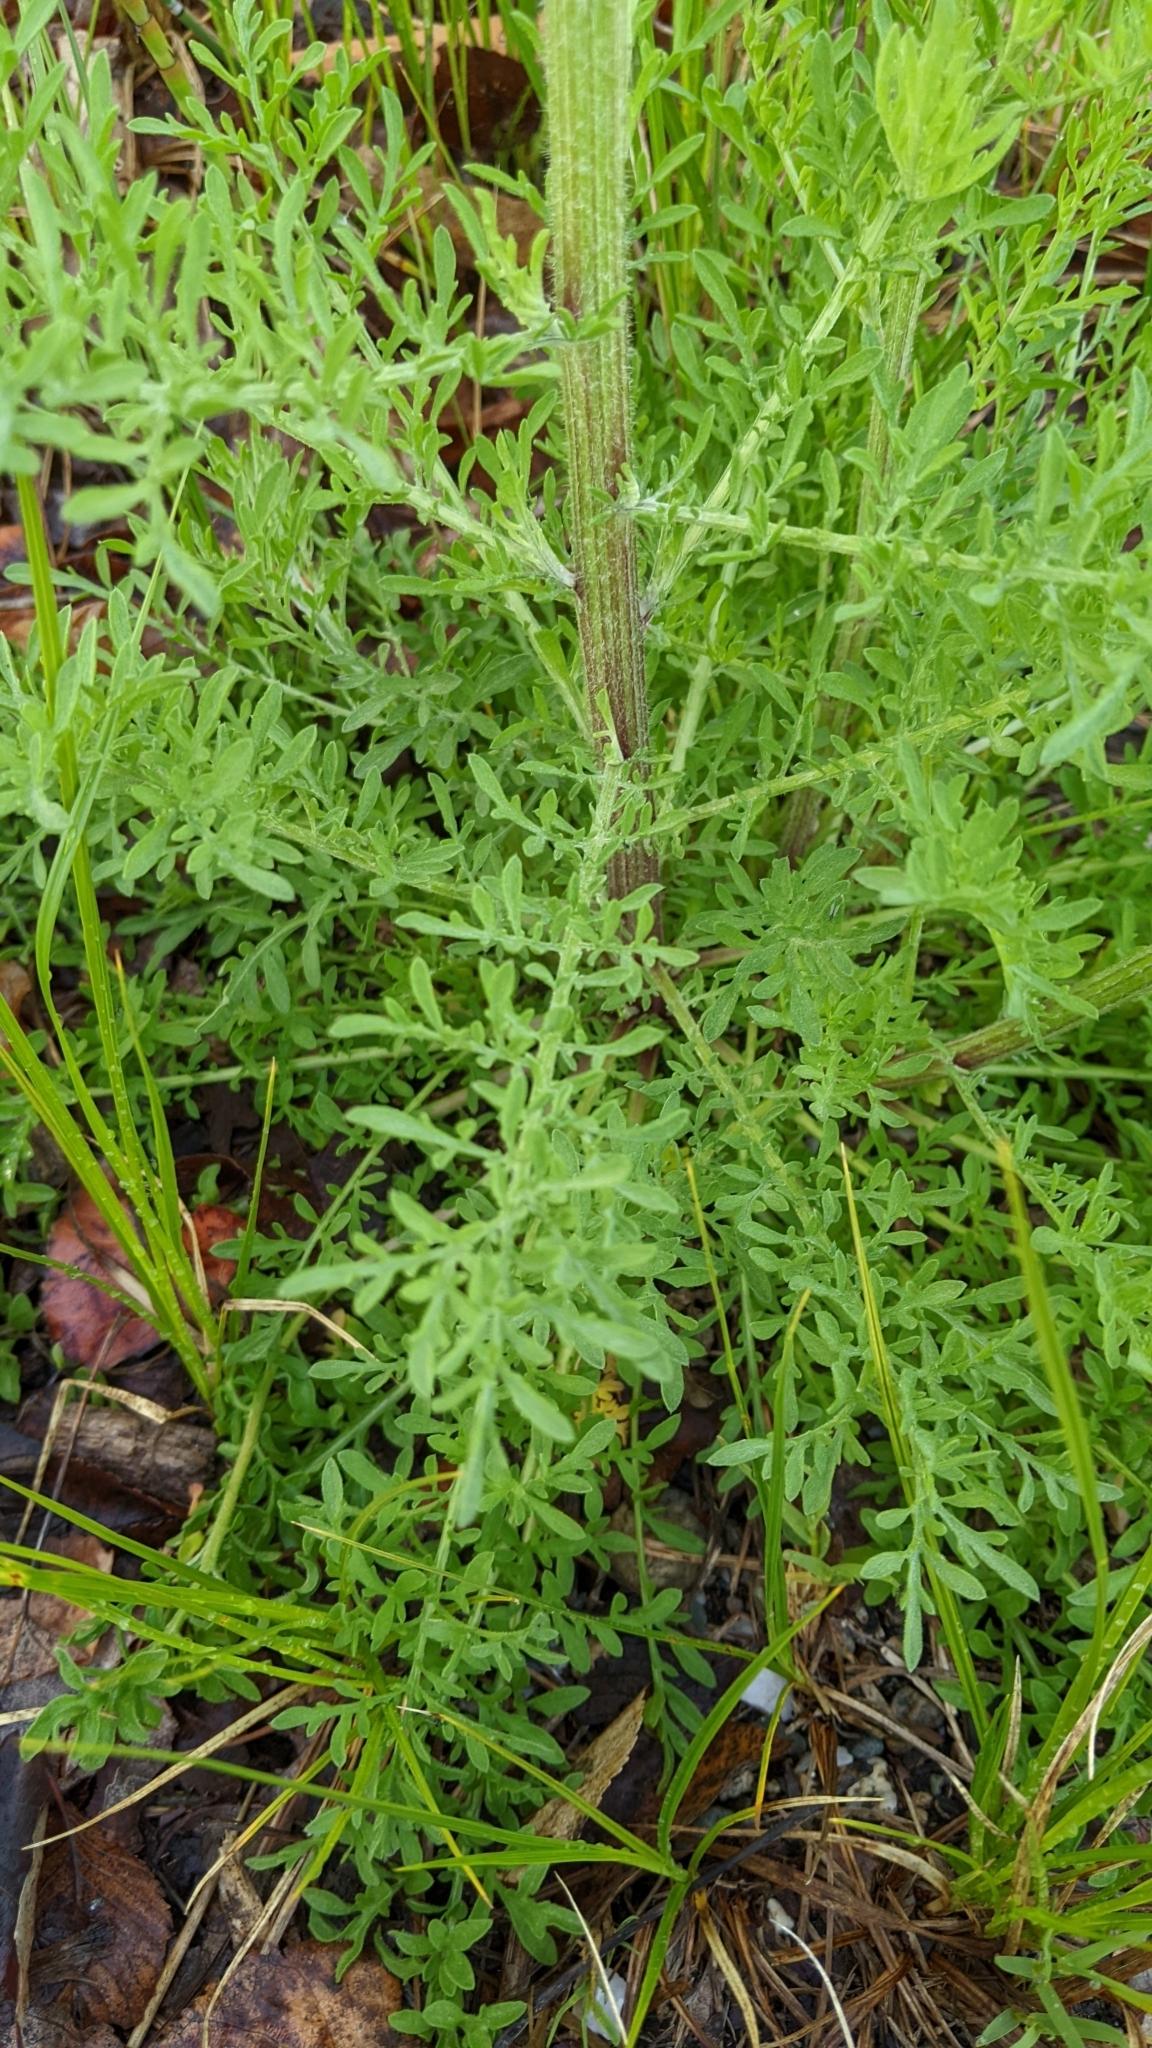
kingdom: Plantae
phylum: Tracheophyta
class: Magnoliopsida
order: Asterales
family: Asteraceae
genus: Centaurea
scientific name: Centaurea diffusa
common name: Diffuse knapweed
